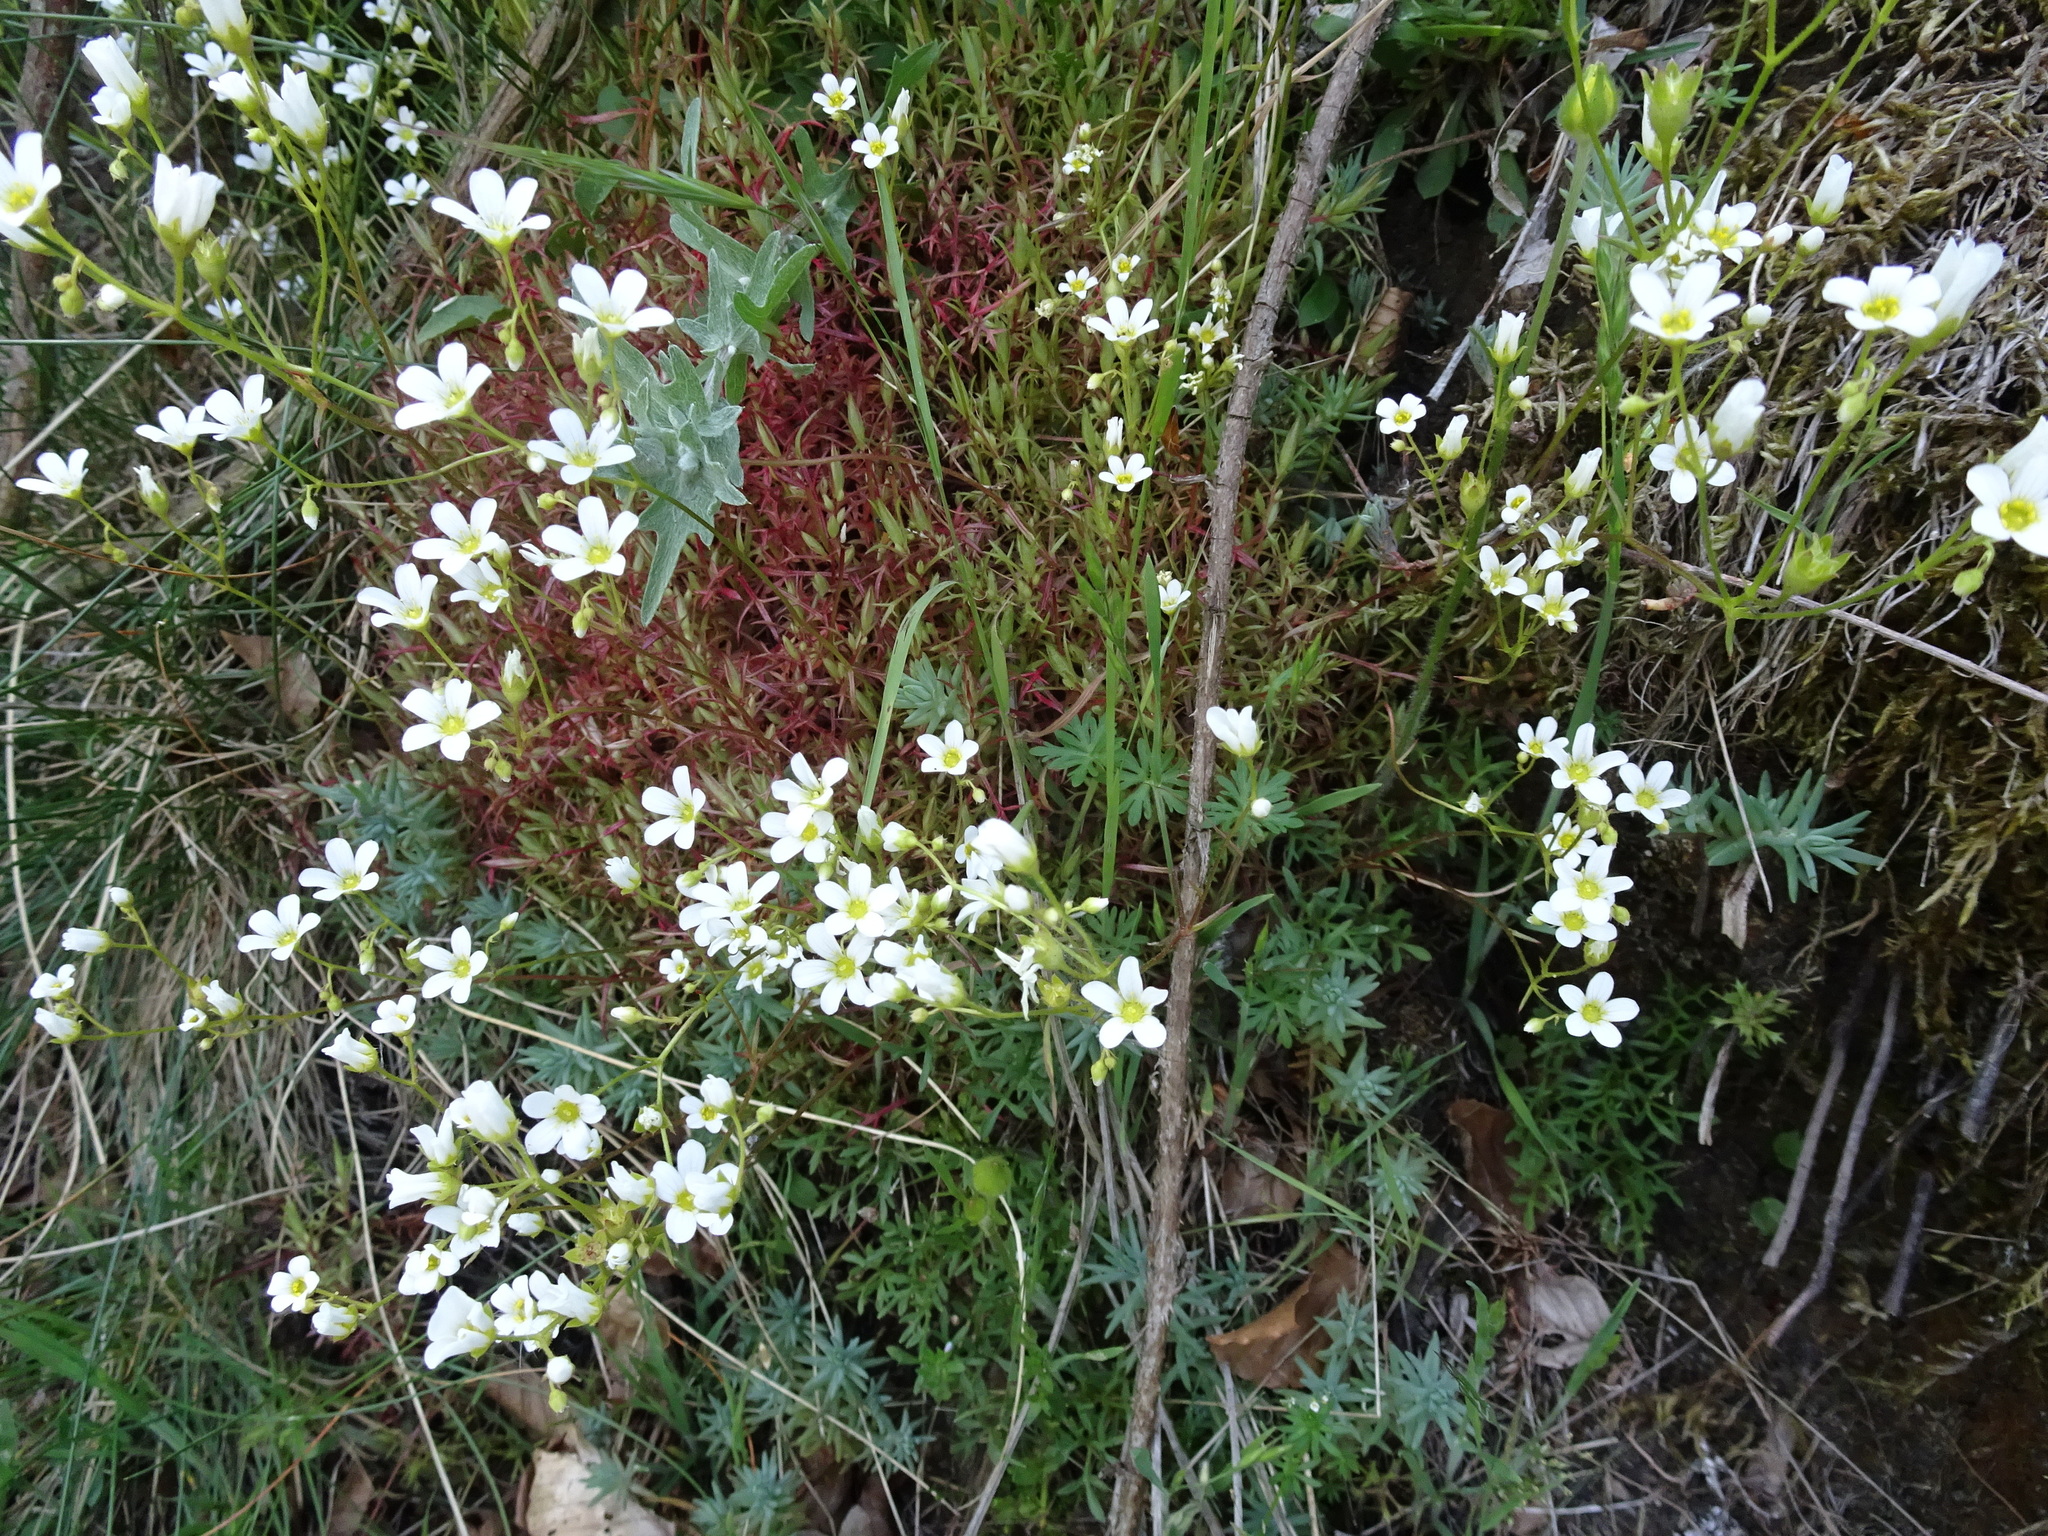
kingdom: Plantae
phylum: Tracheophyta
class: Magnoliopsida
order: Saxifragales
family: Saxifragaceae
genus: Saxifraga
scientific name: Saxifraga fragosoi
